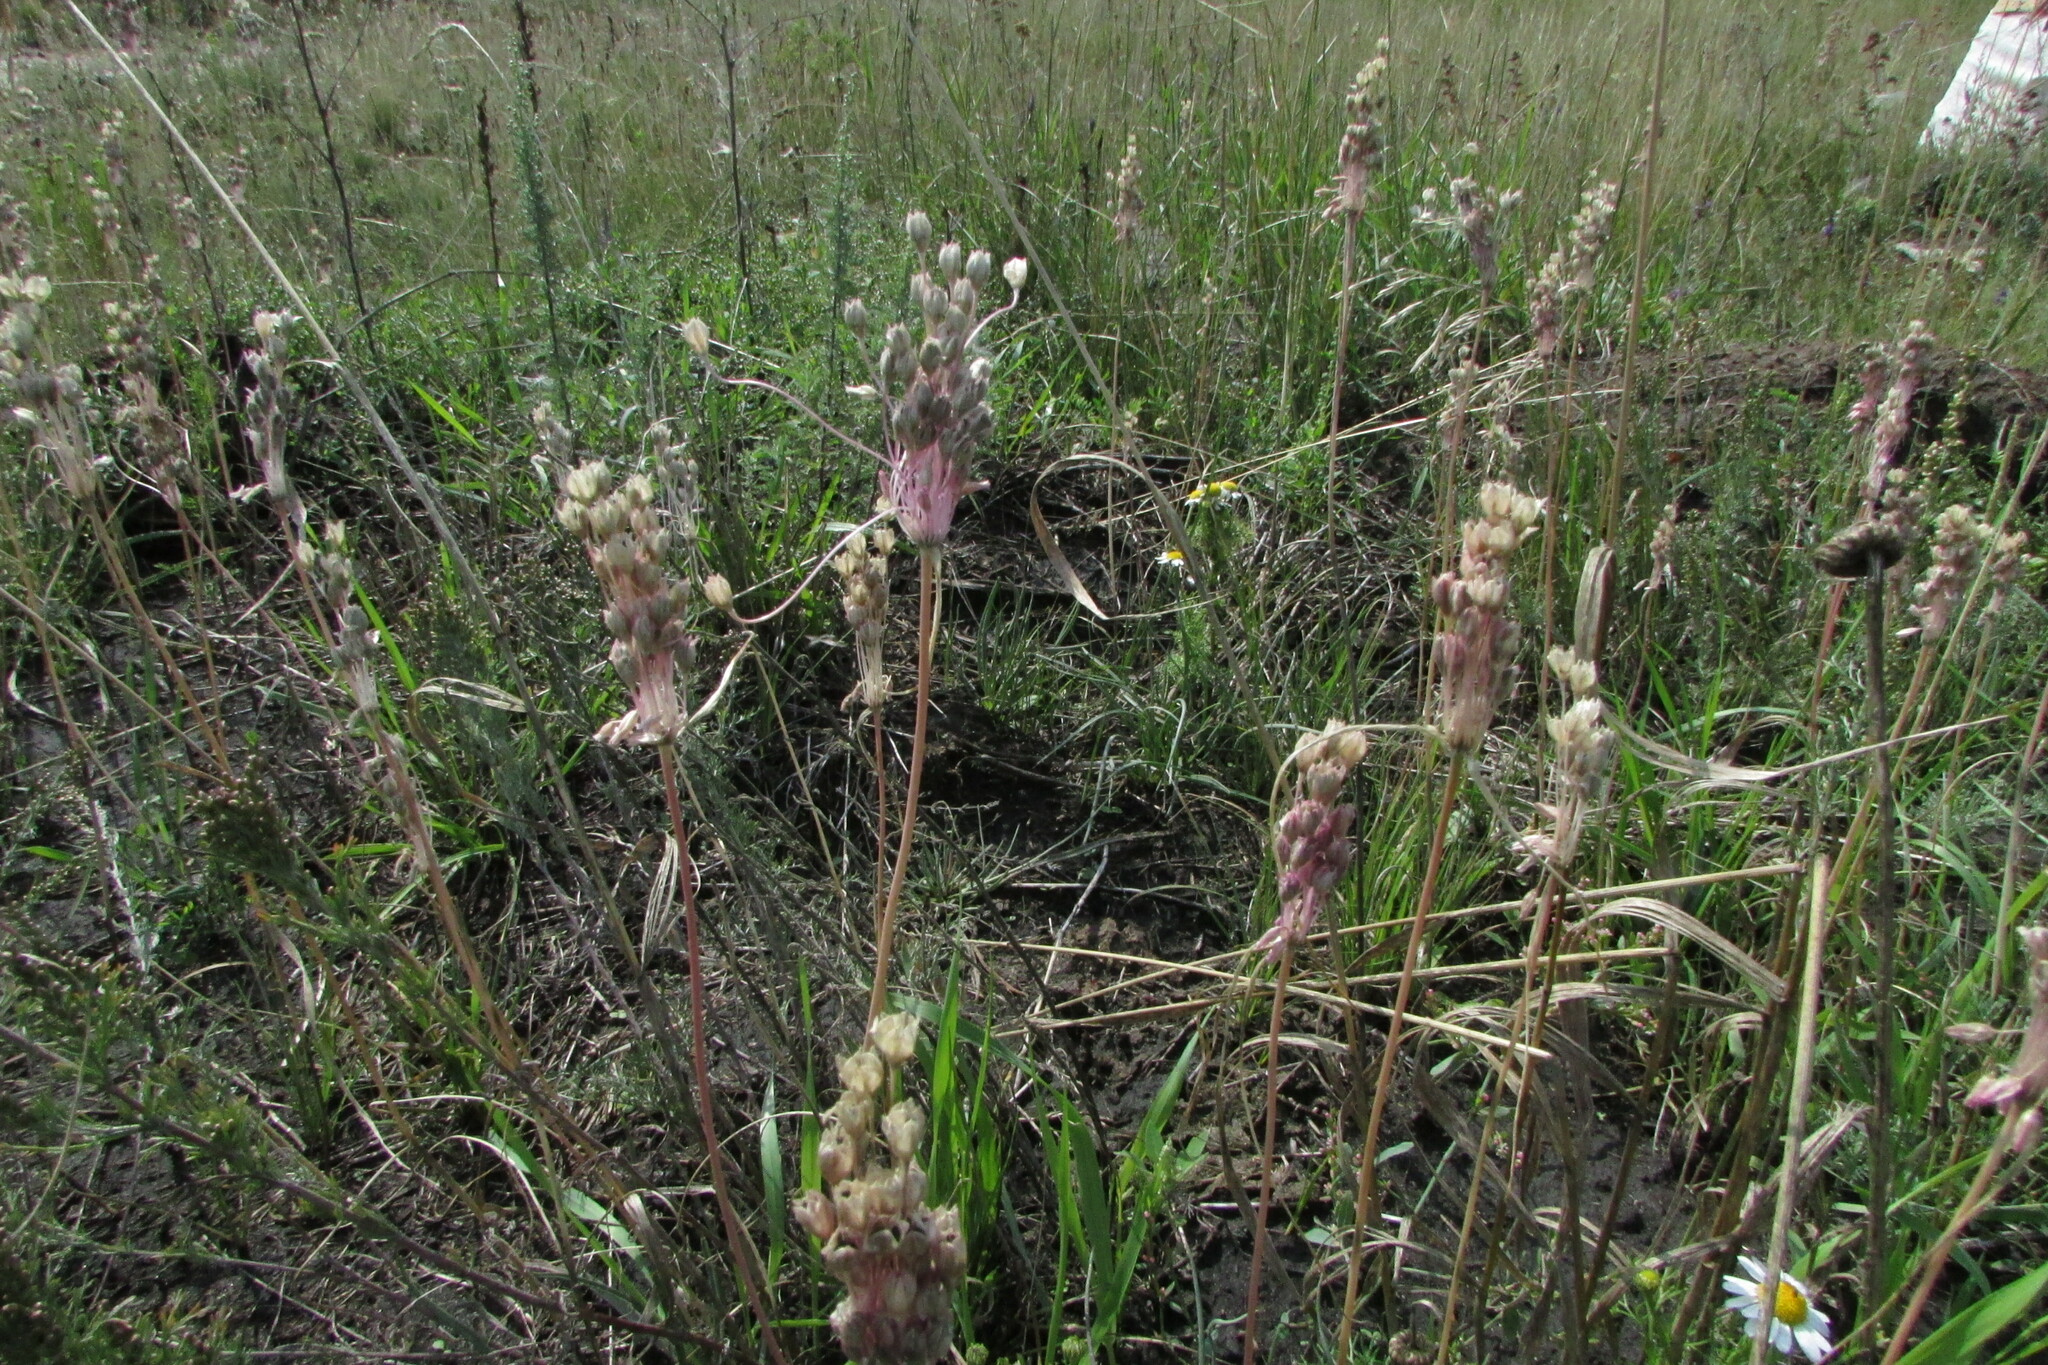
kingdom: Plantae
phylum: Tracheophyta
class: Liliopsida
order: Asparagales
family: Amaryllidaceae
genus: Allium
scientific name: Allium praescissum
